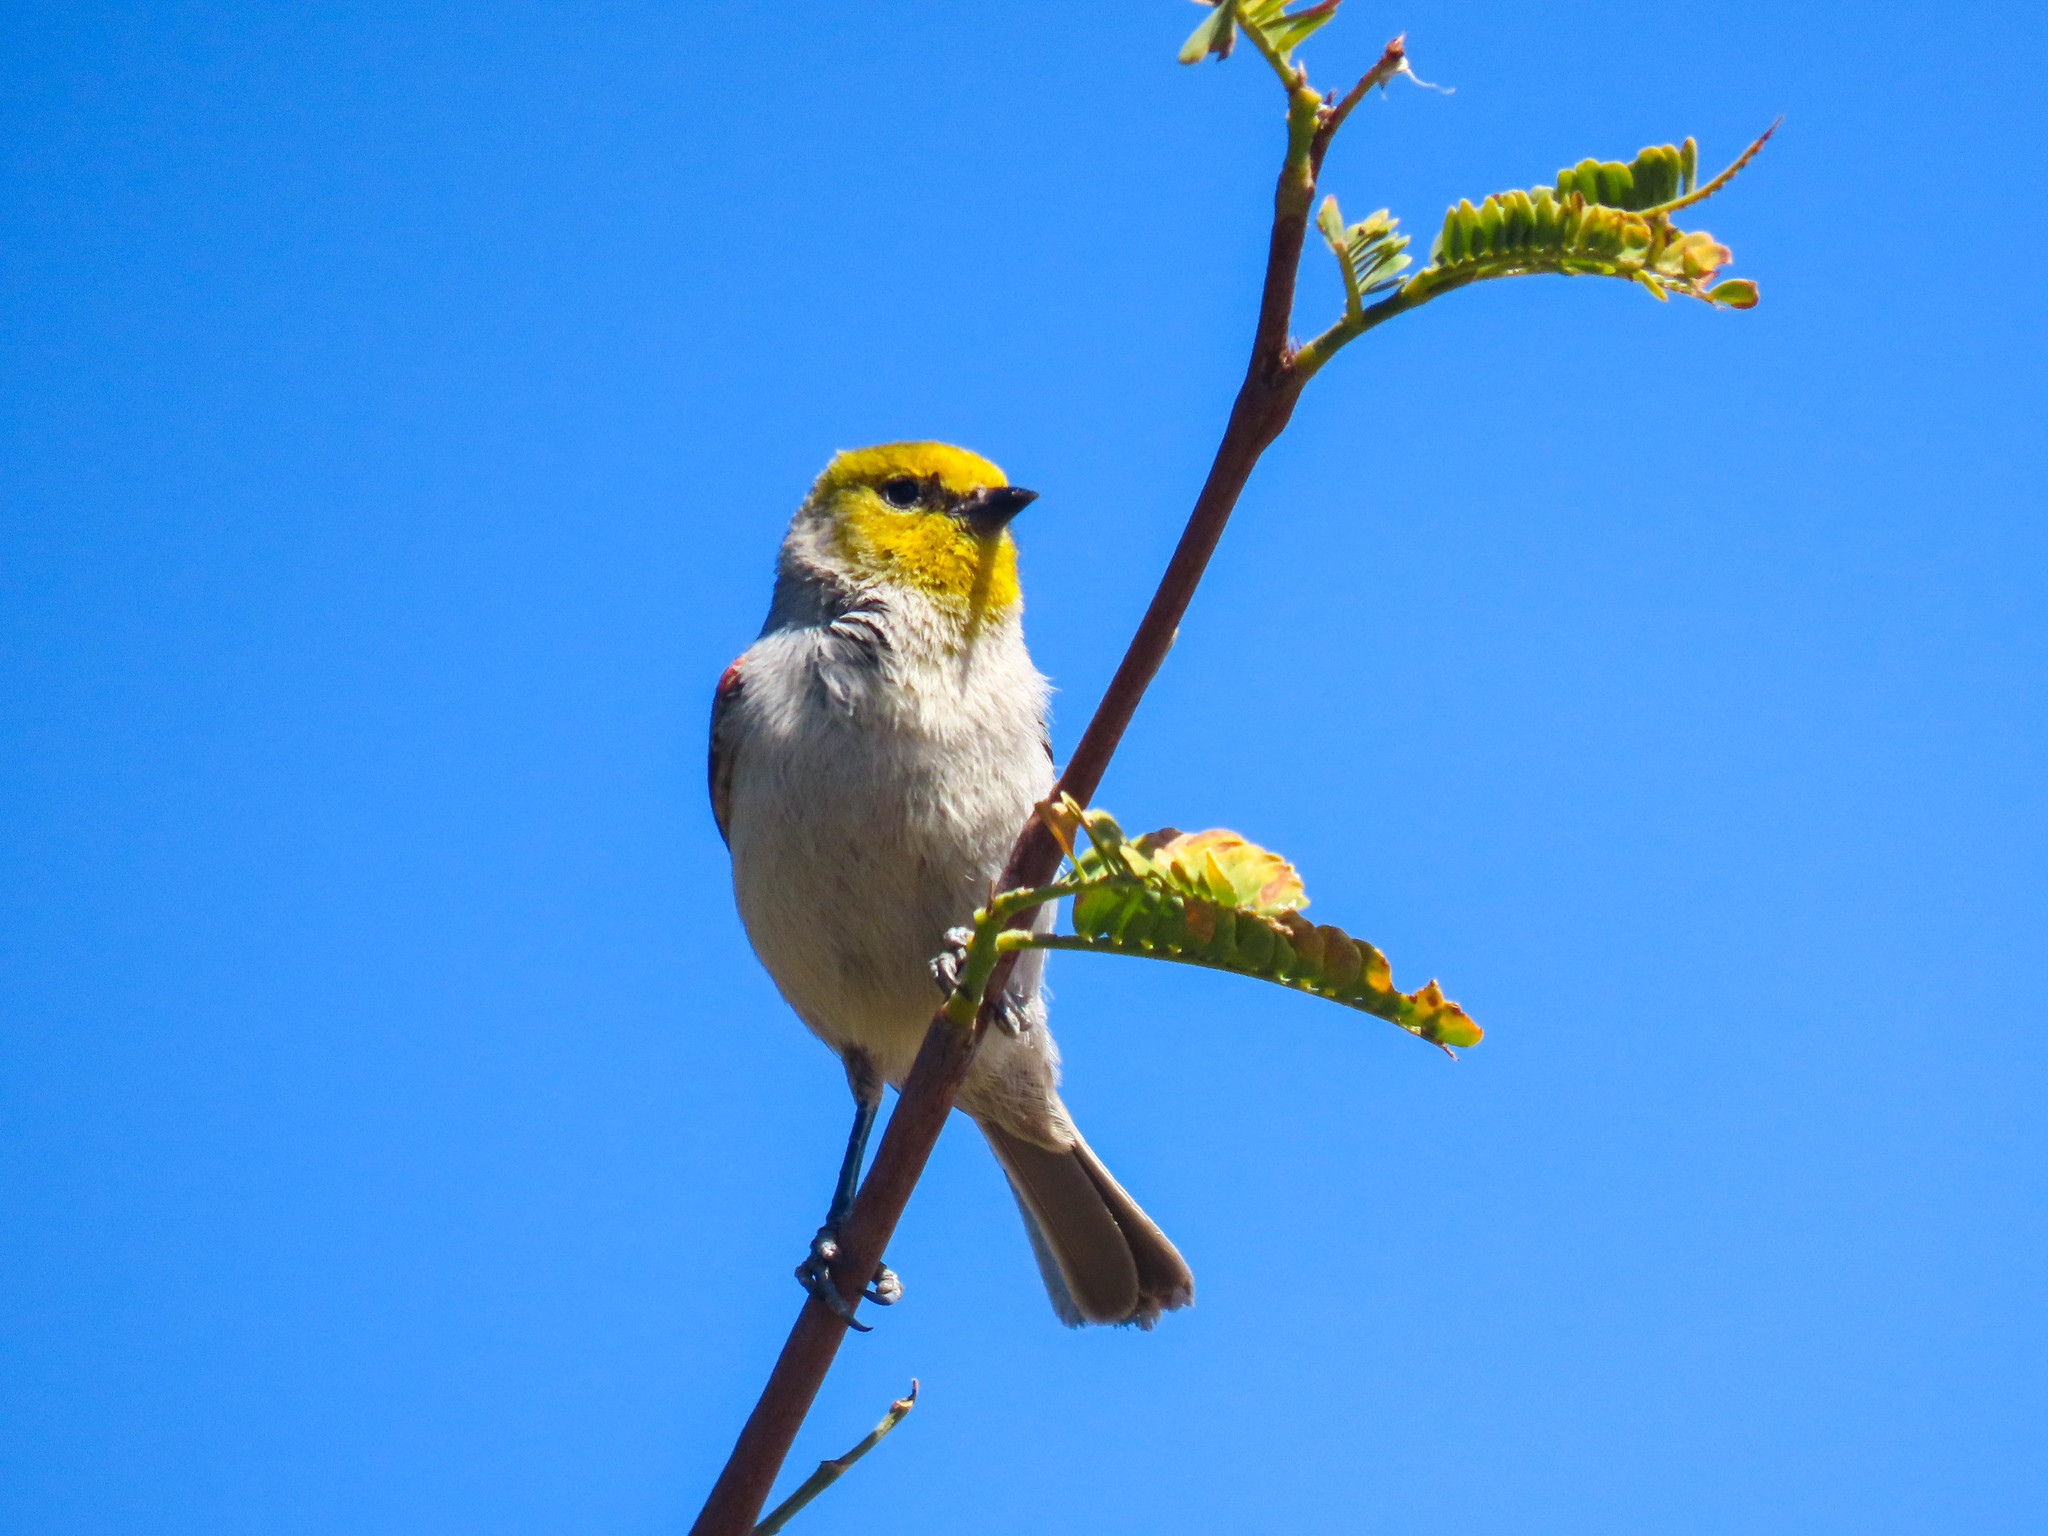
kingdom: Animalia
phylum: Chordata
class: Aves
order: Passeriformes
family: Remizidae
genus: Auriparus
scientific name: Auriparus flaviceps
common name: Verdin
